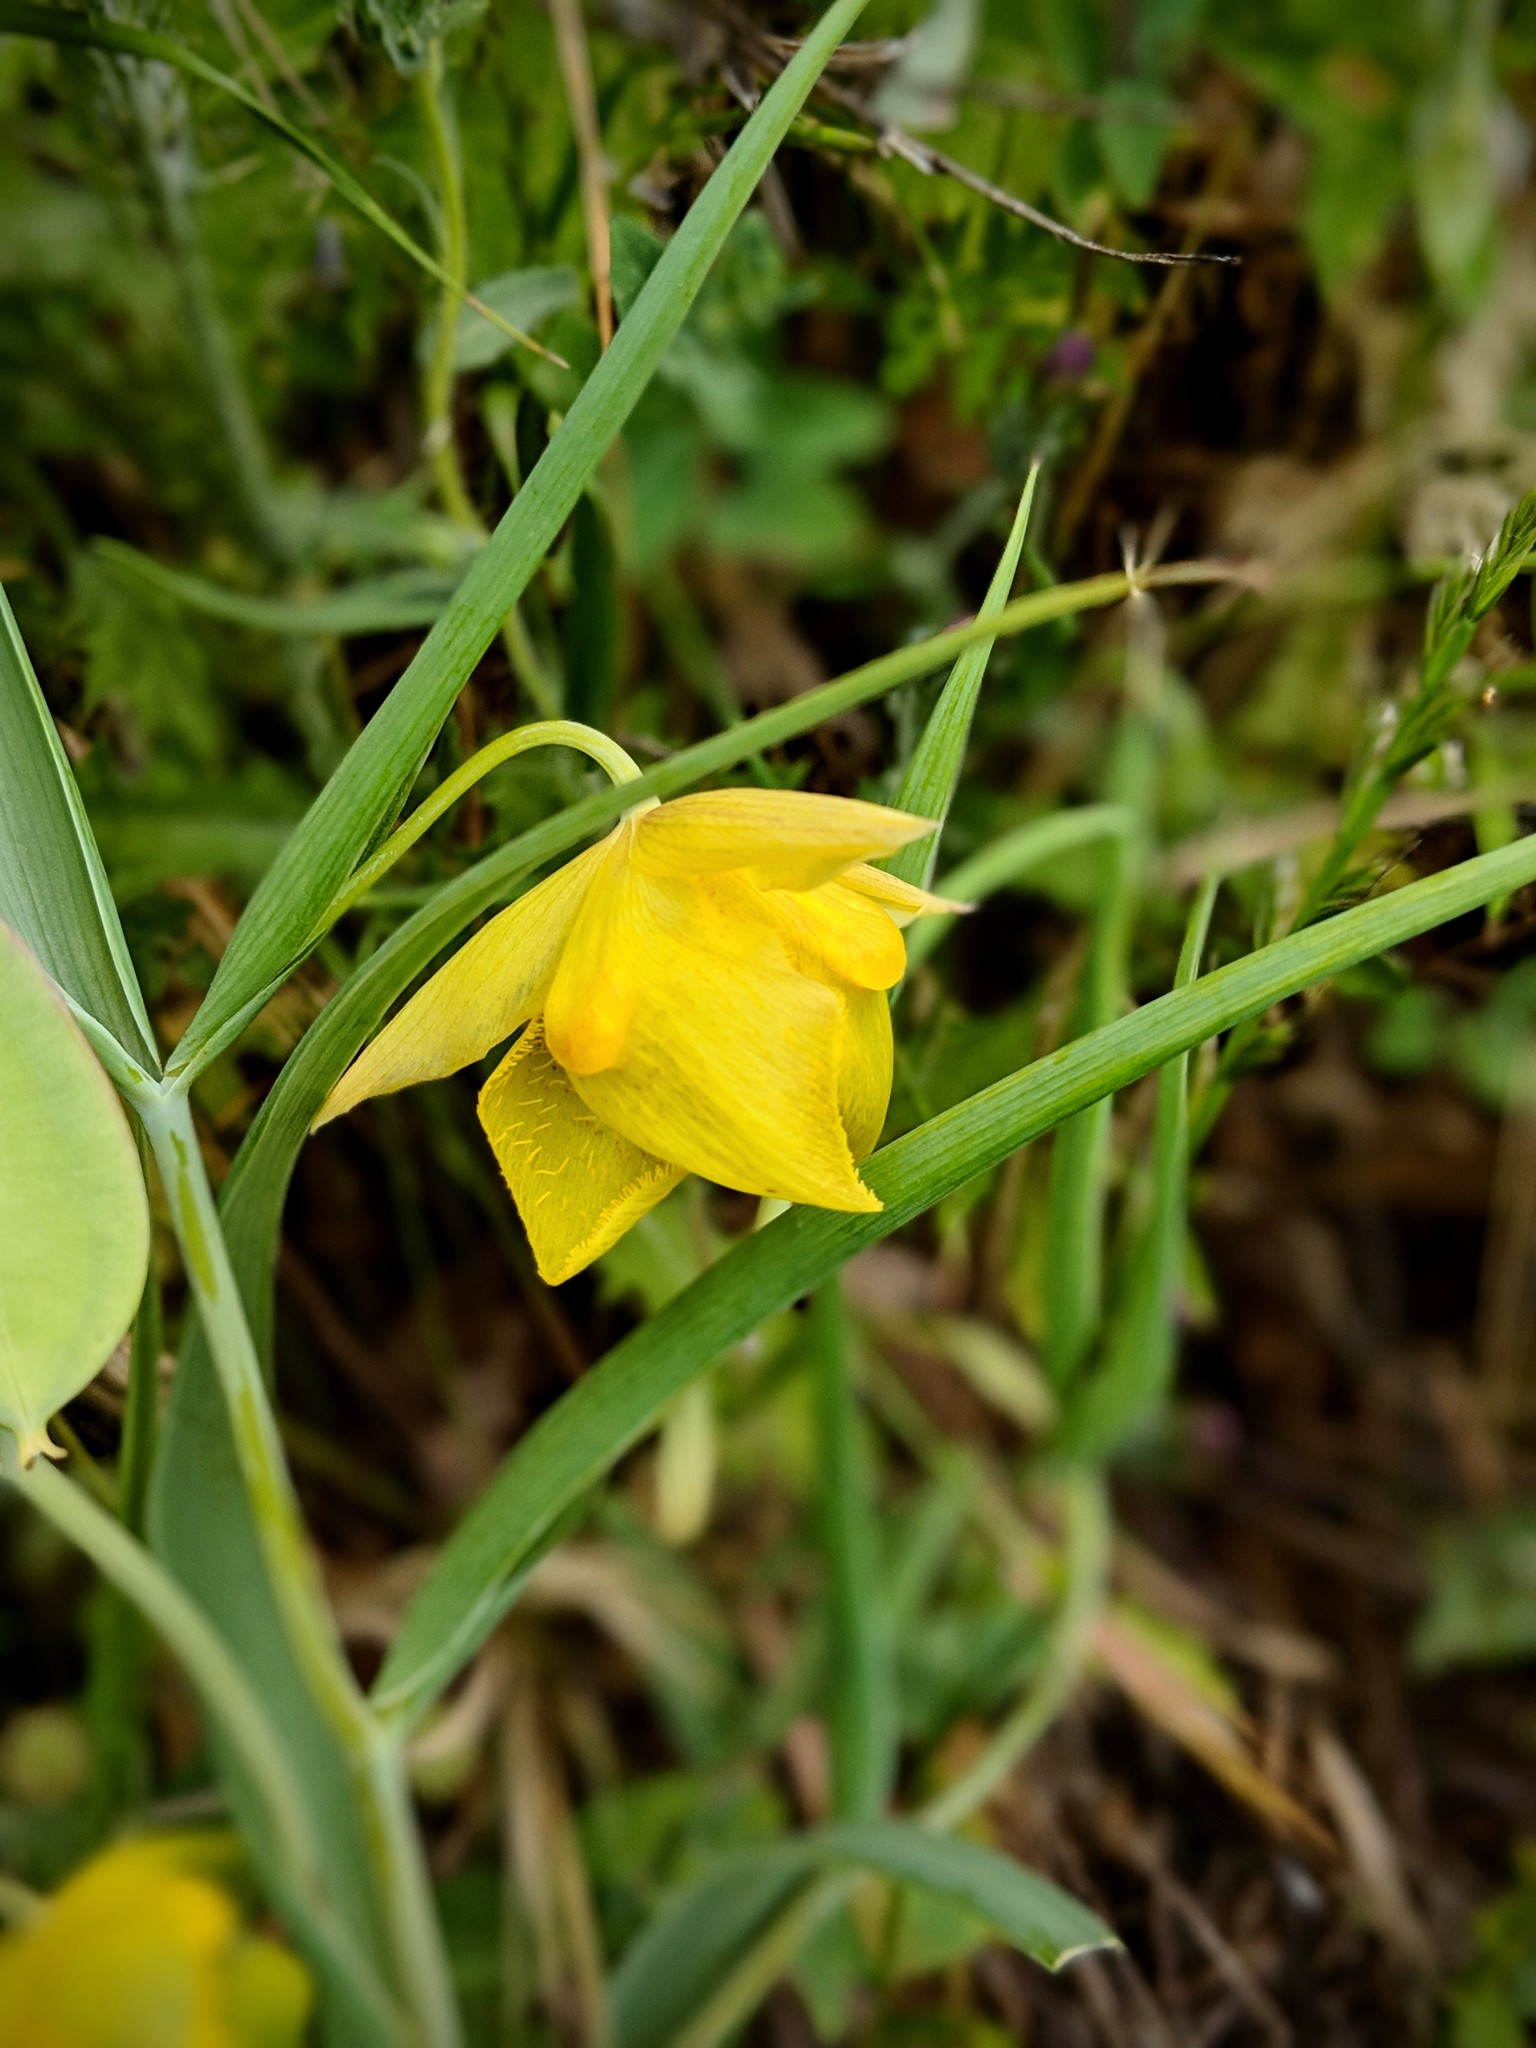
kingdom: Plantae
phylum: Tracheophyta
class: Liliopsida
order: Liliales
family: Liliaceae
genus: Calochortus
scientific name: Calochortus pulchellus
